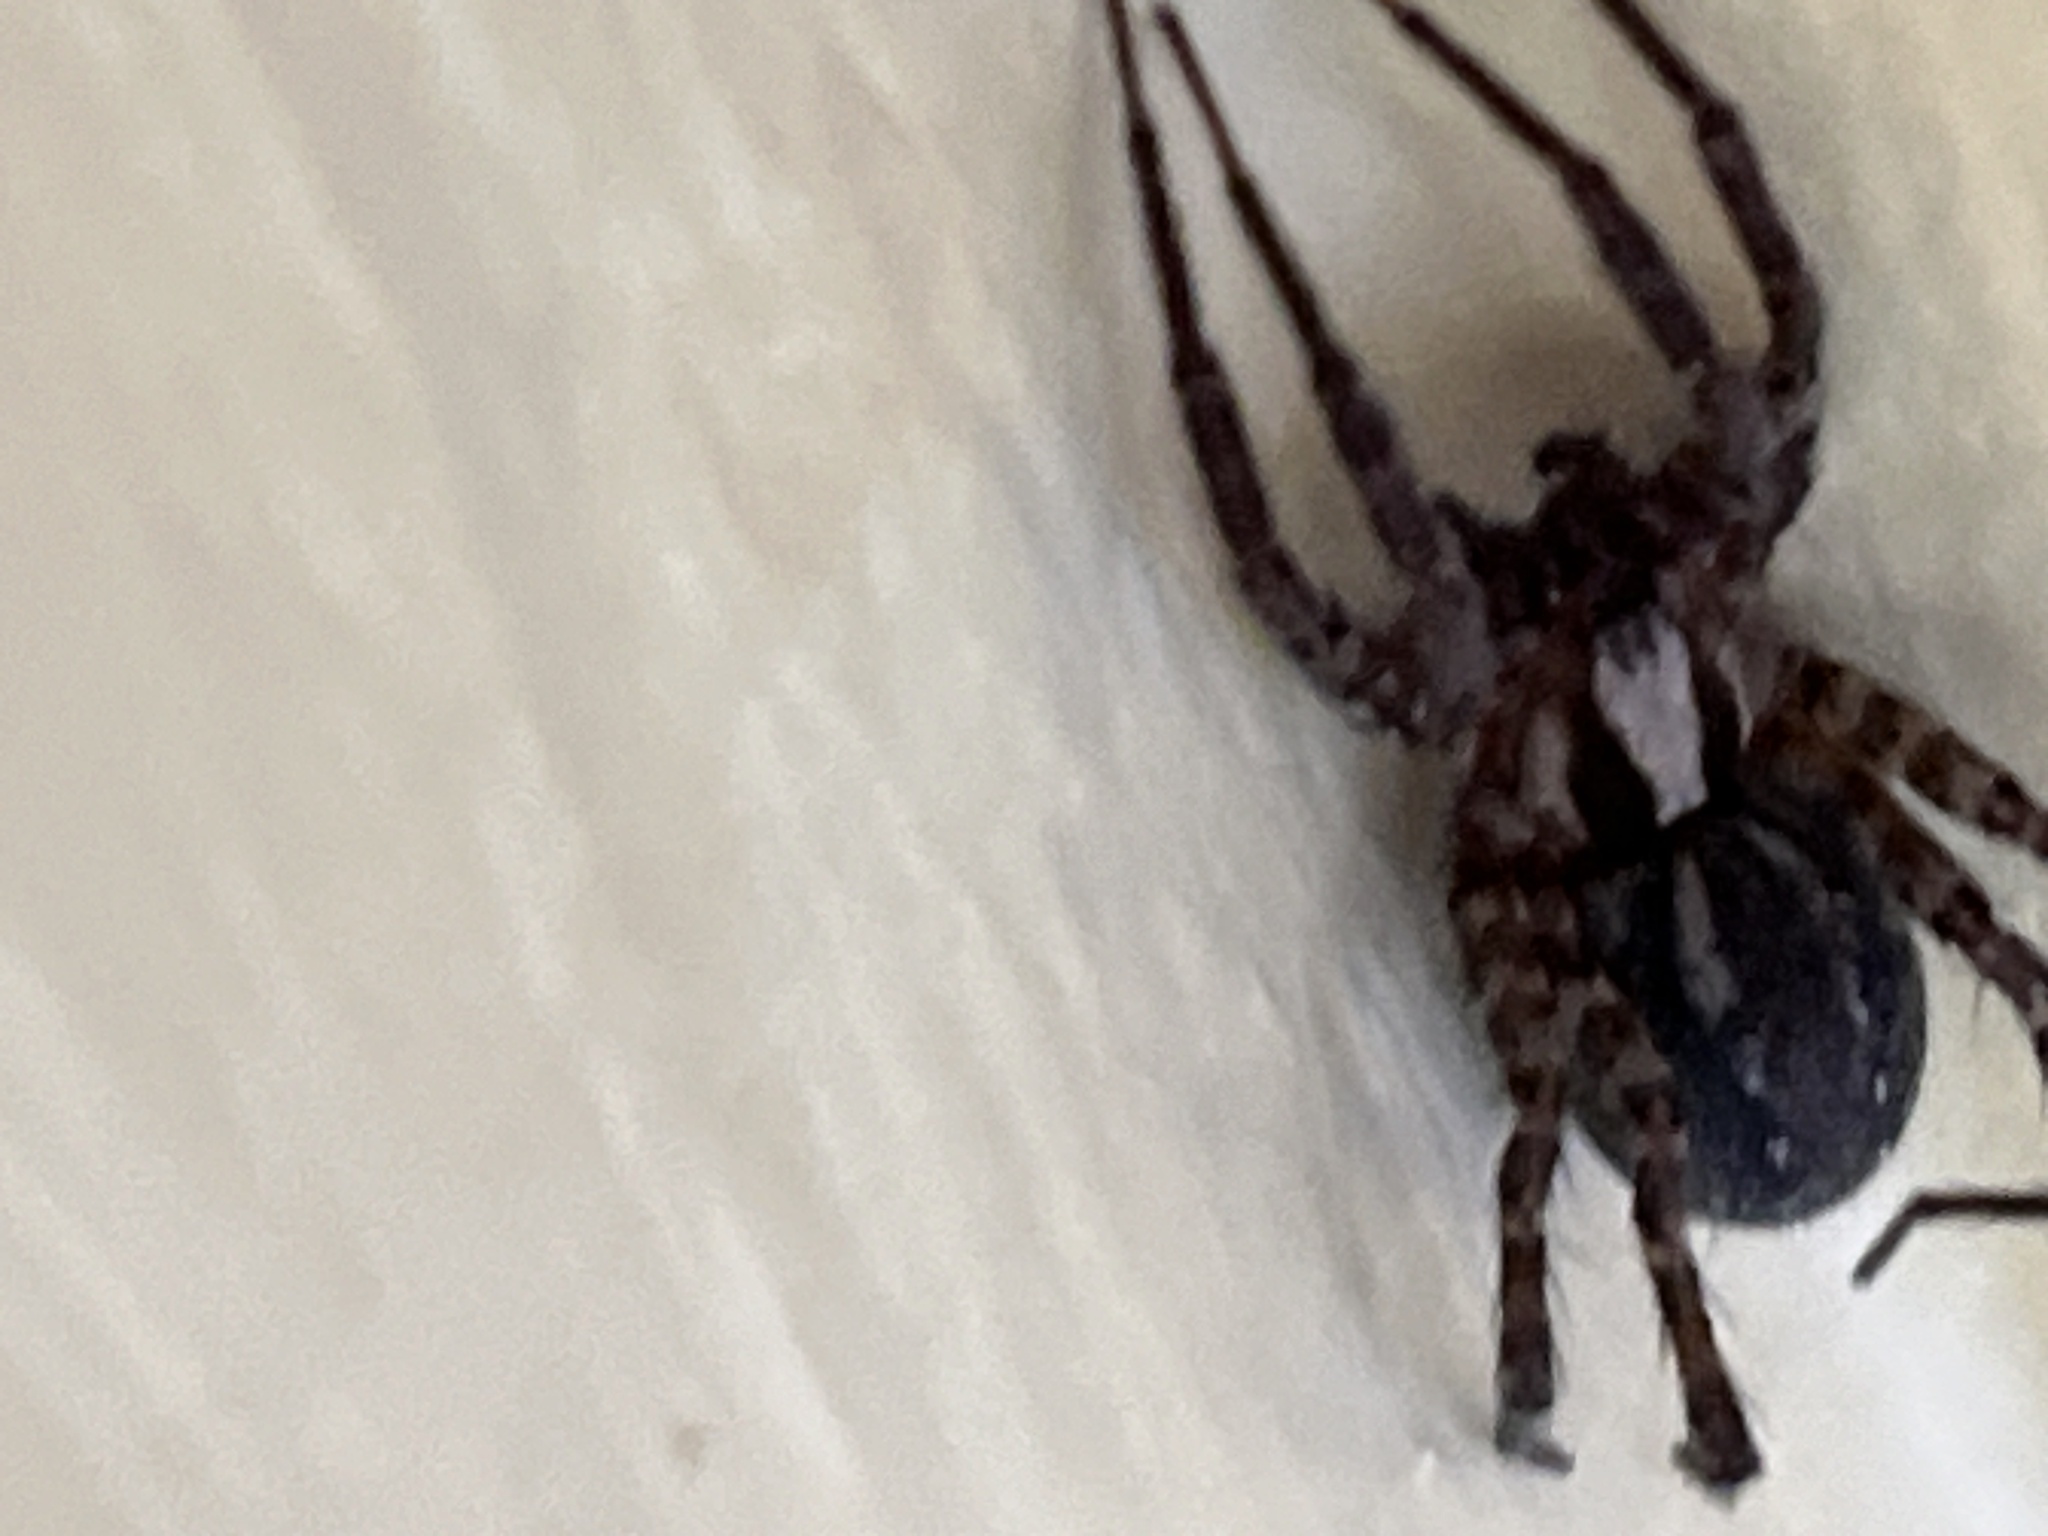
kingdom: Animalia
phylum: Arthropoda
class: Arachnida
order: Araneae
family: Agelenidae
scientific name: Agelenidae
